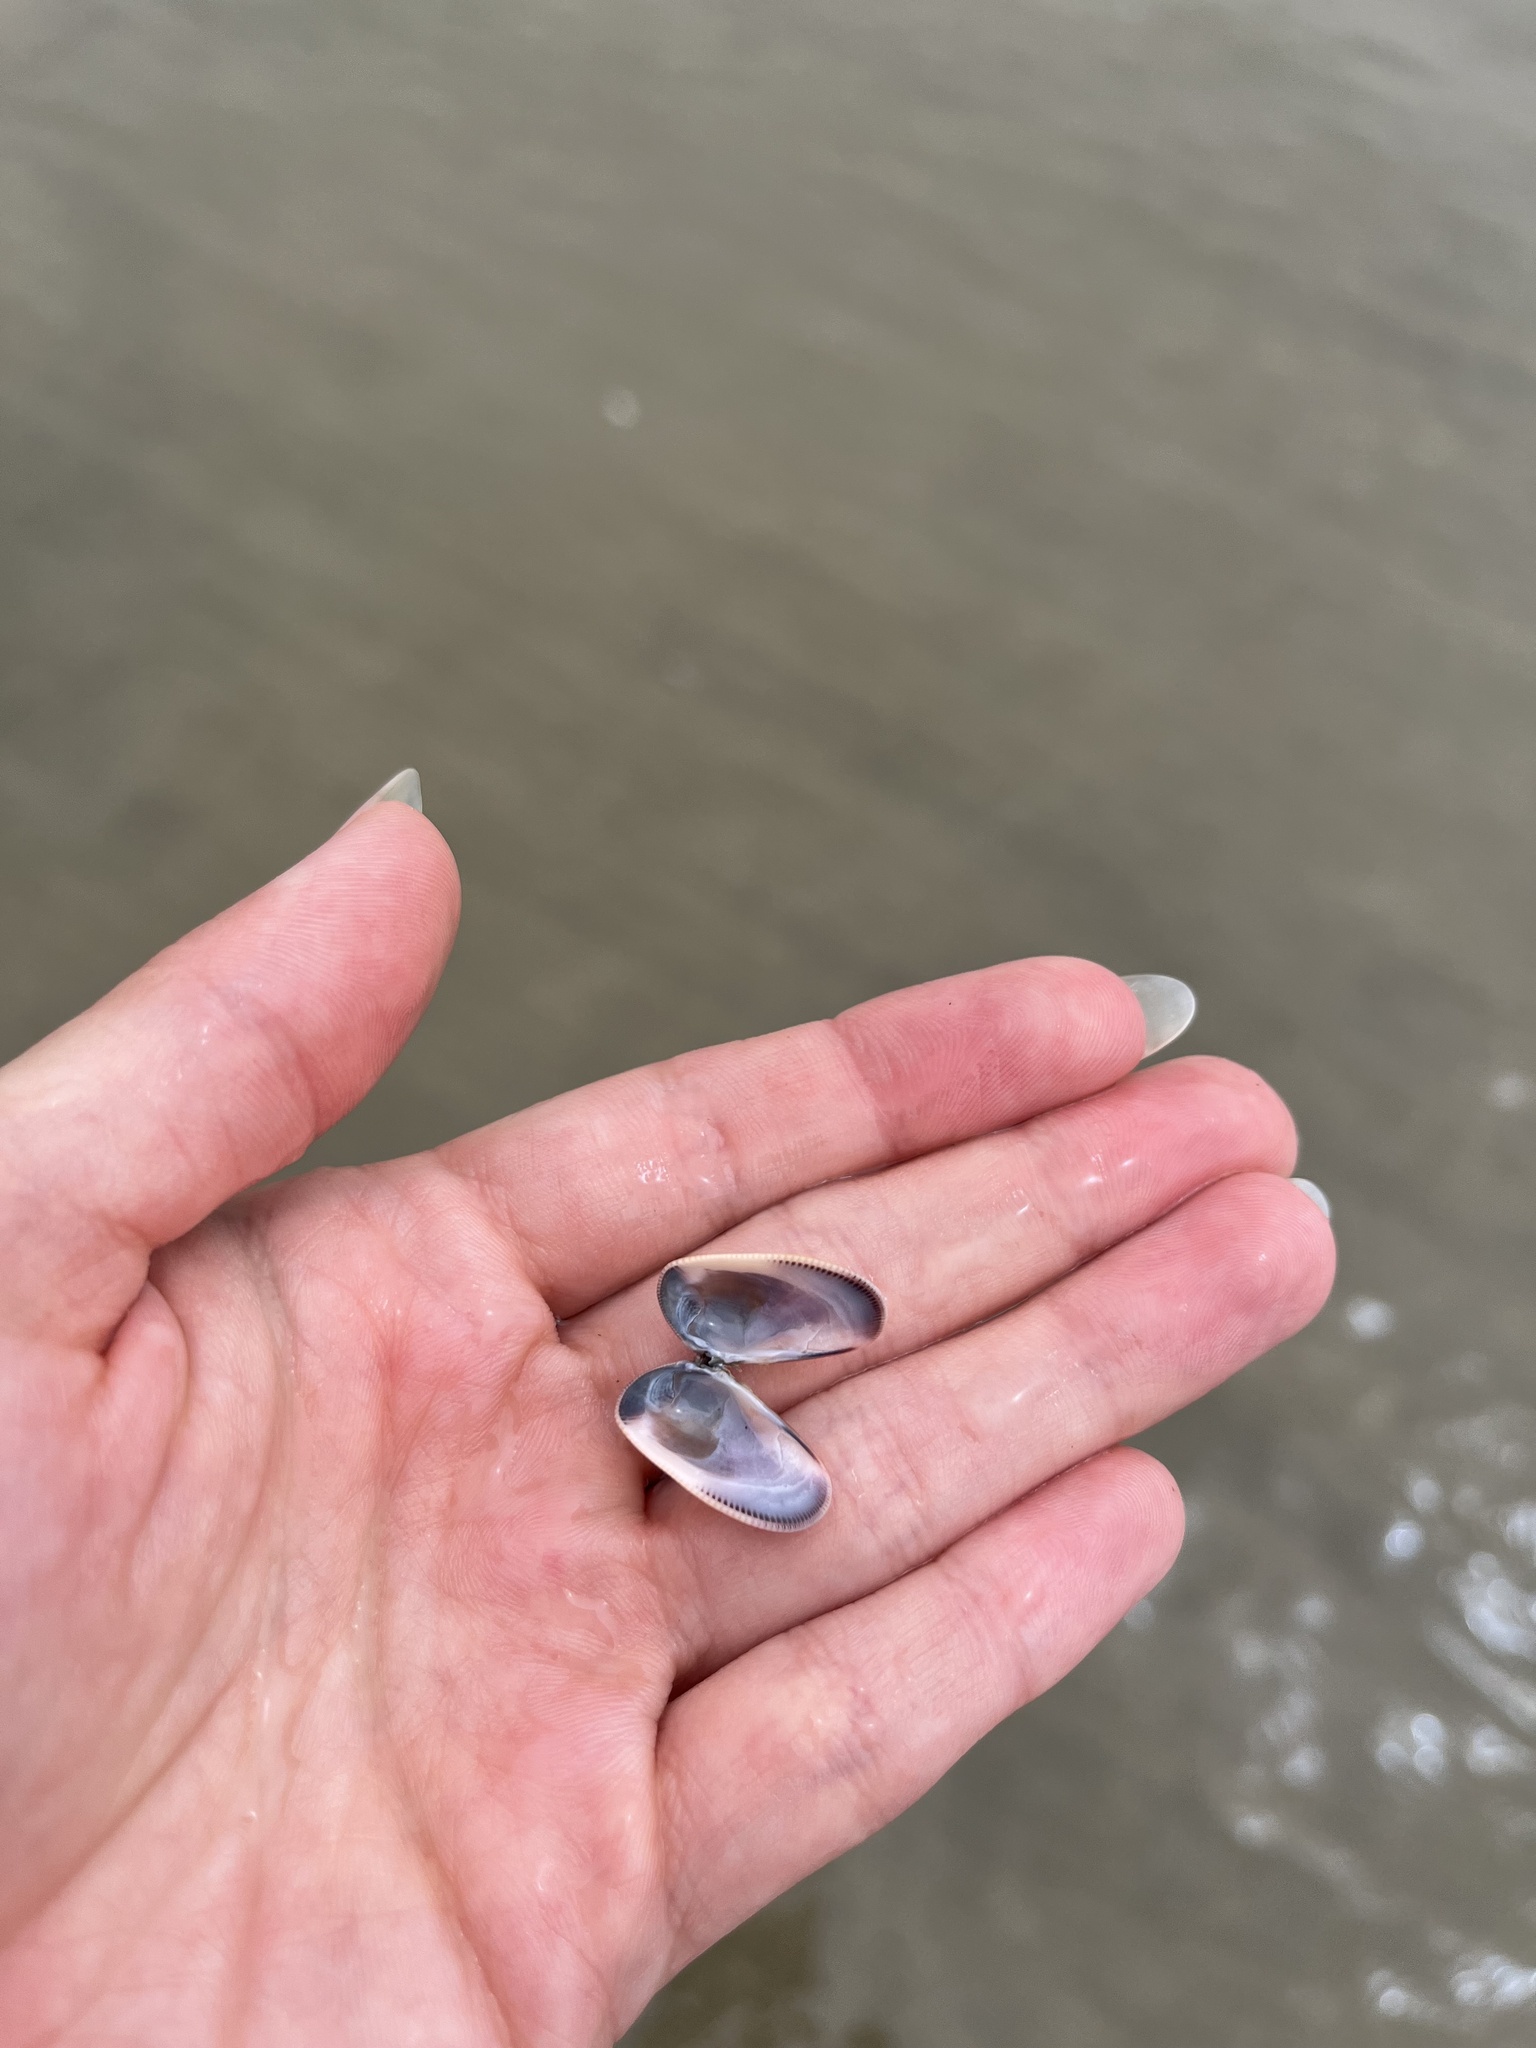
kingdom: Animalia
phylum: Mollusca
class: Bivalvia
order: Cardiida
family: Donacidae
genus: Donax
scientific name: Donax gouldii
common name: Gould beanclam
